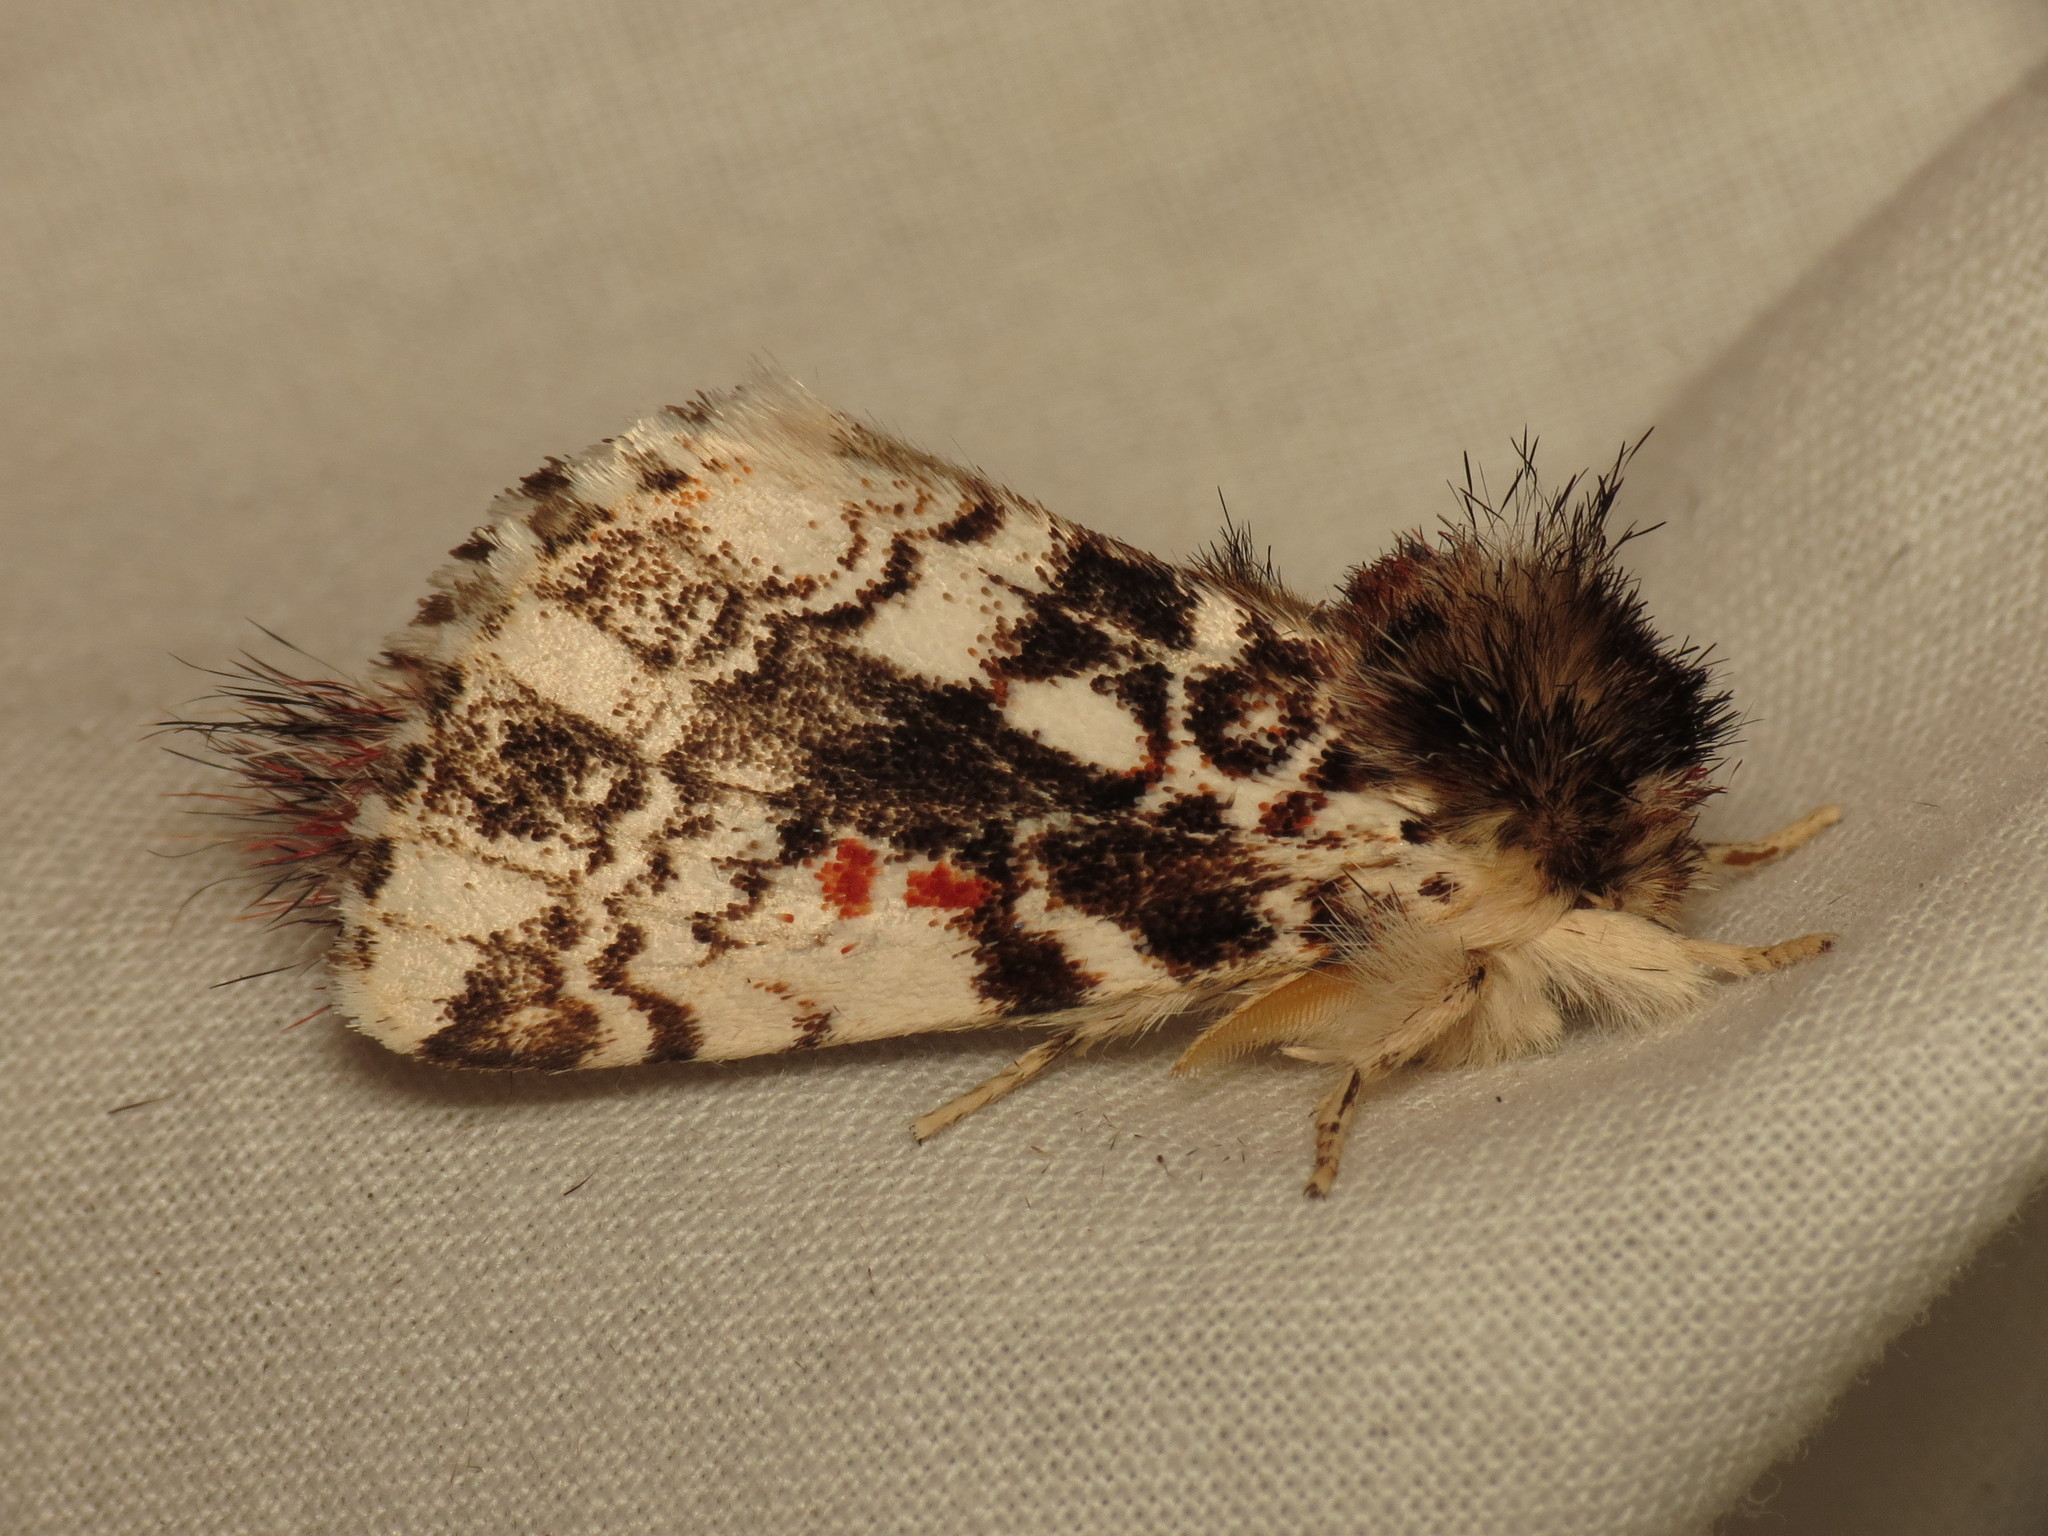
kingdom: Animalia
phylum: Arthropoda
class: Insecta
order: Lepidoptera
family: Notodontidae
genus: Aglaosoma
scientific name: Aglaosoma variegata
